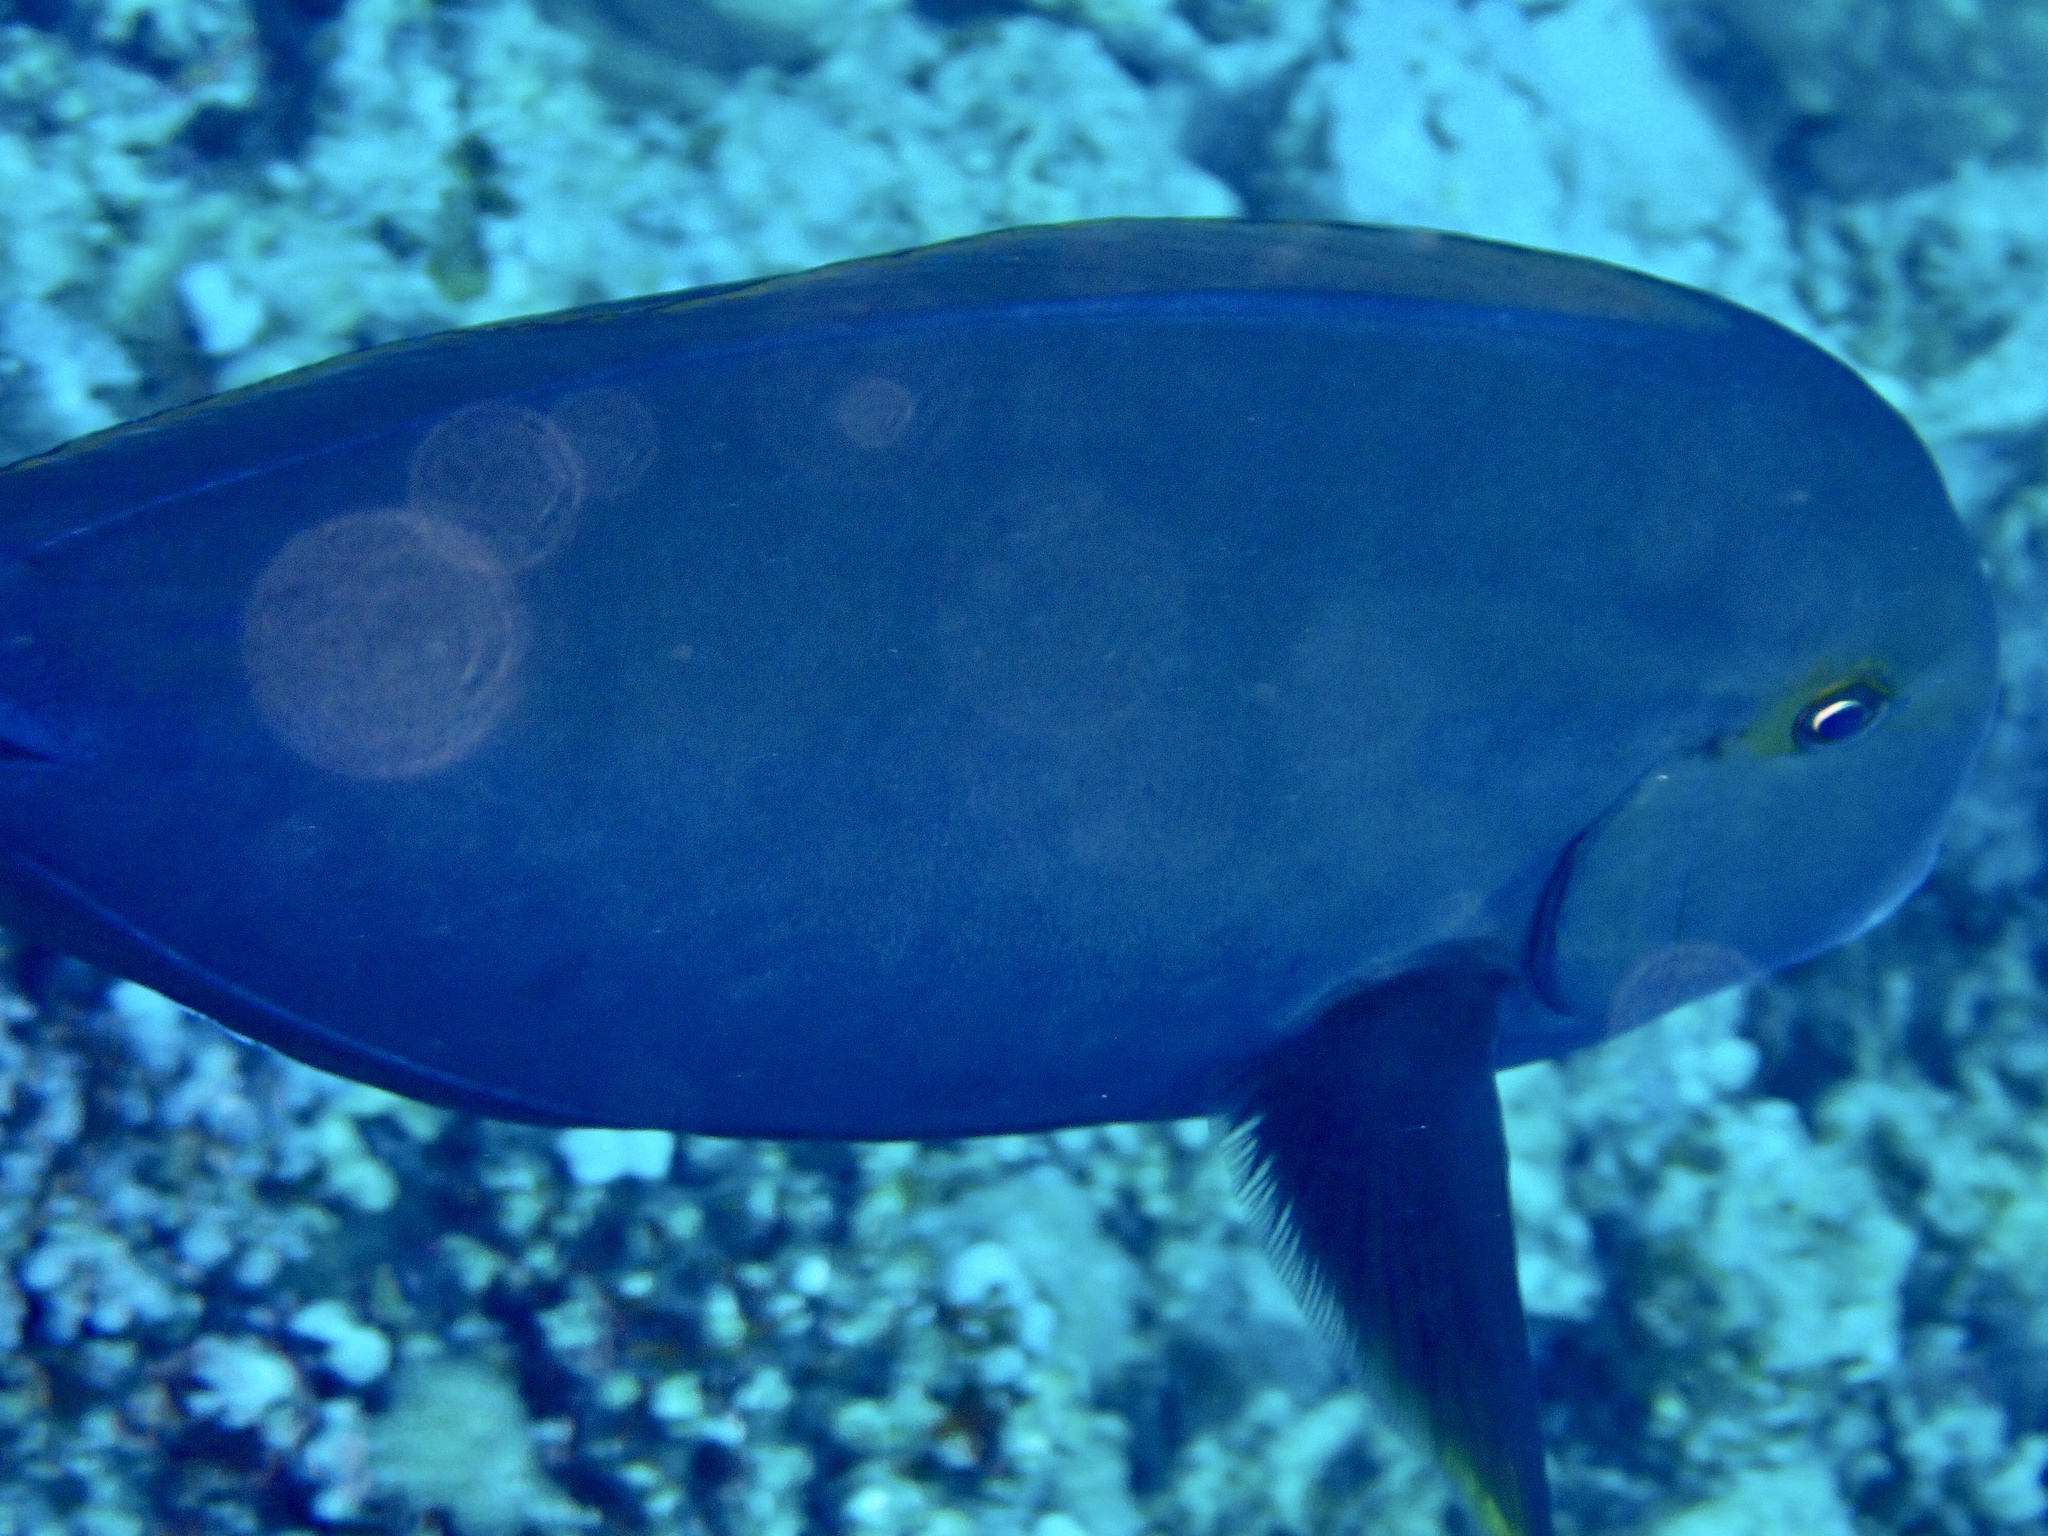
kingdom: Animalia
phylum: Chordata
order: Perciformes
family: Acanthuridae
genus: Acanthurus
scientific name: Acanthurus gahhm
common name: Black surgeonfish
